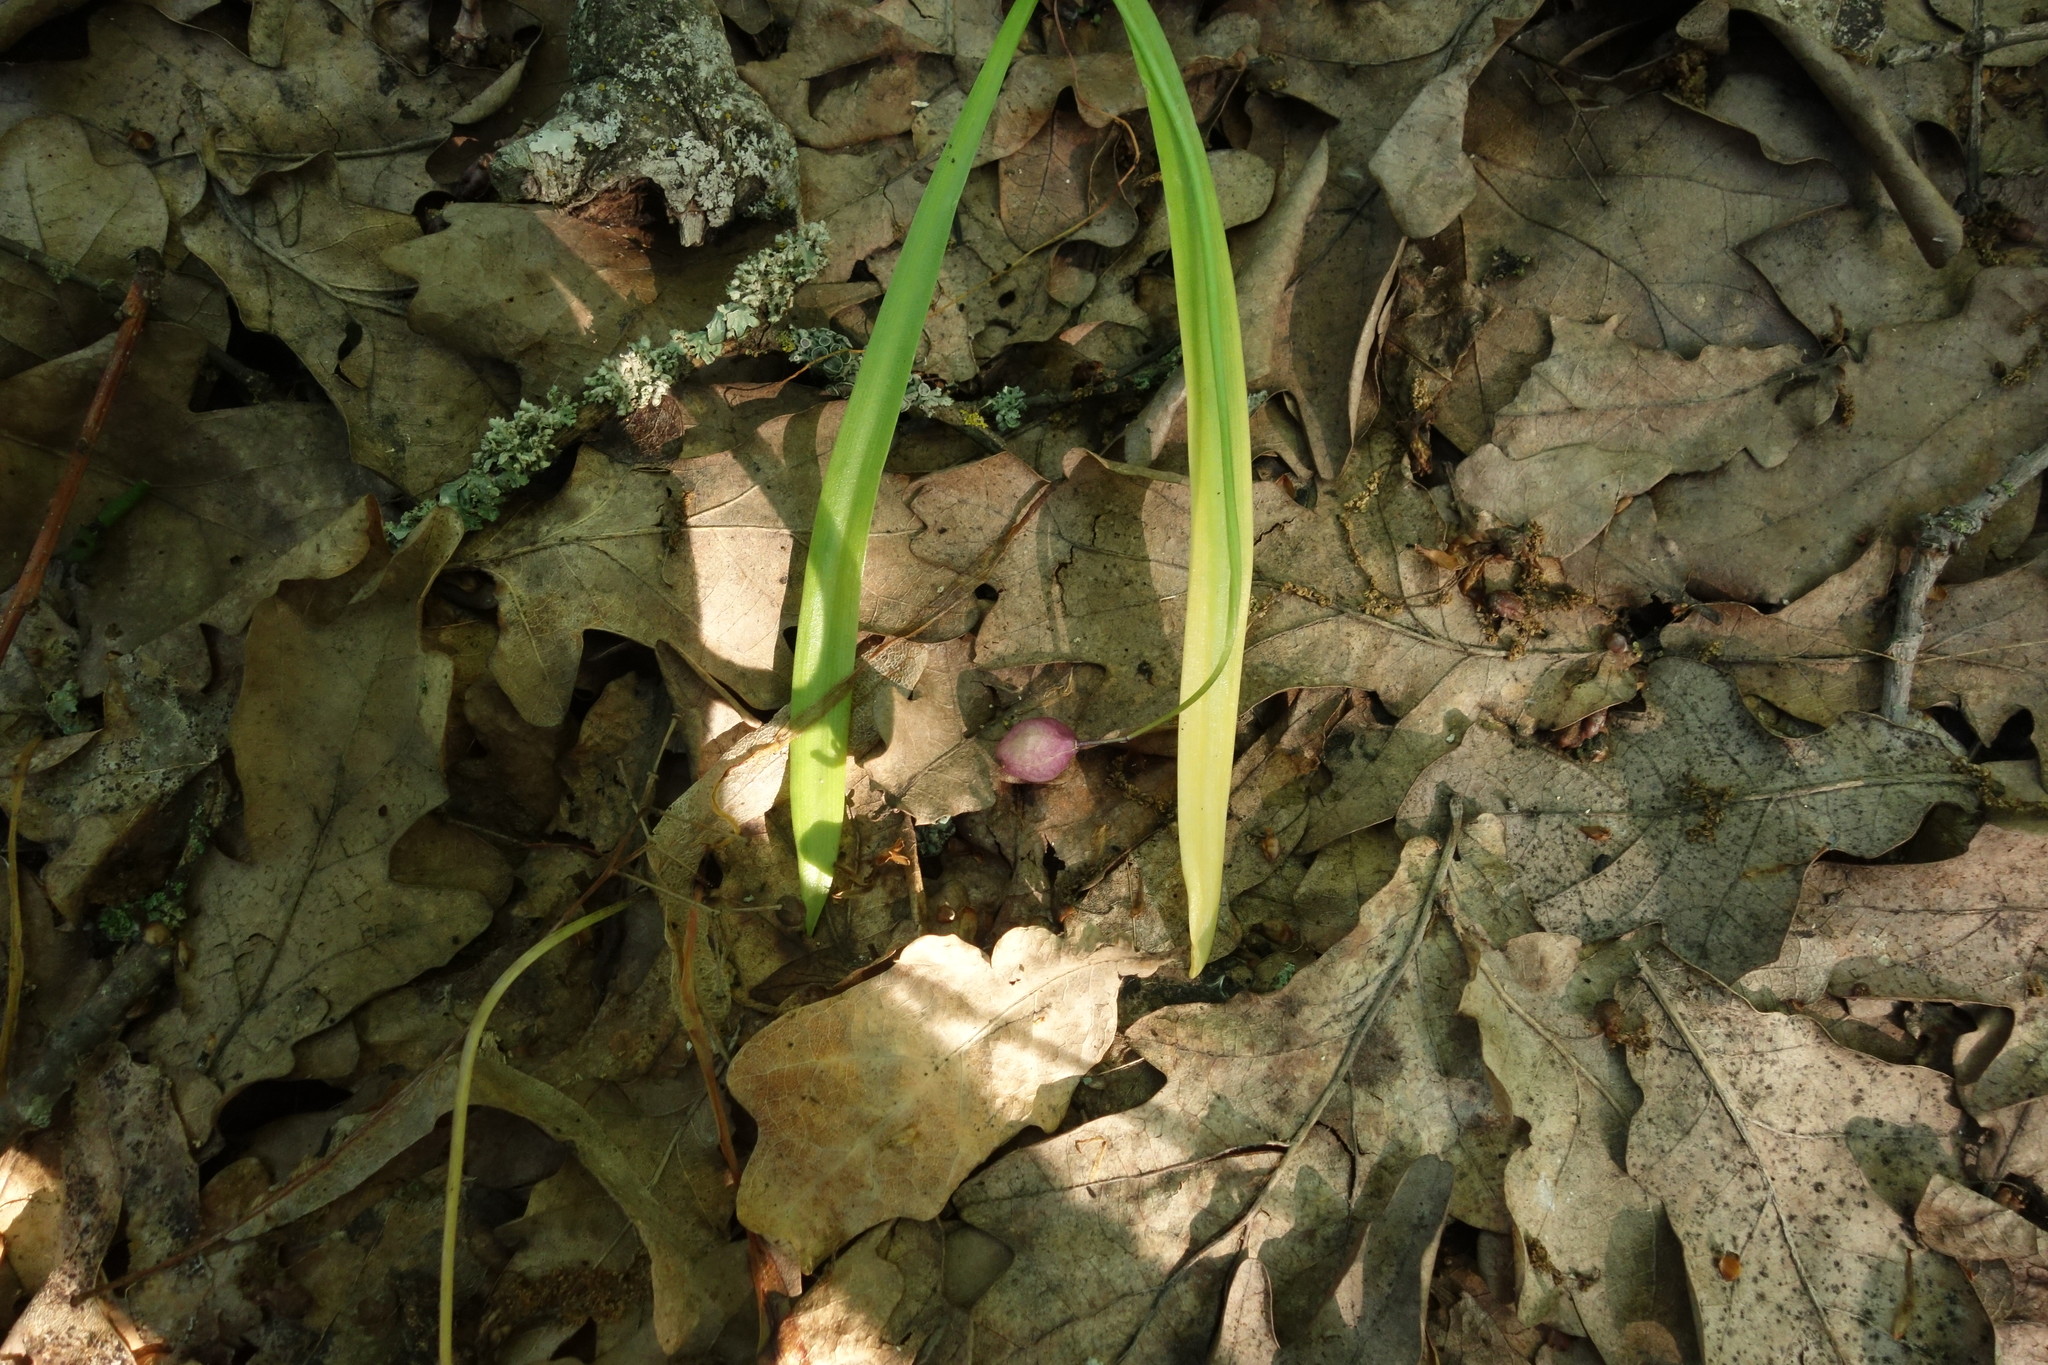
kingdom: Plantae
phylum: Tracheophyta
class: Liliopsida
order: Asparagales
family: Asparagaceae
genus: Scilla
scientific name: Scilla siberica
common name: Siberian squill
